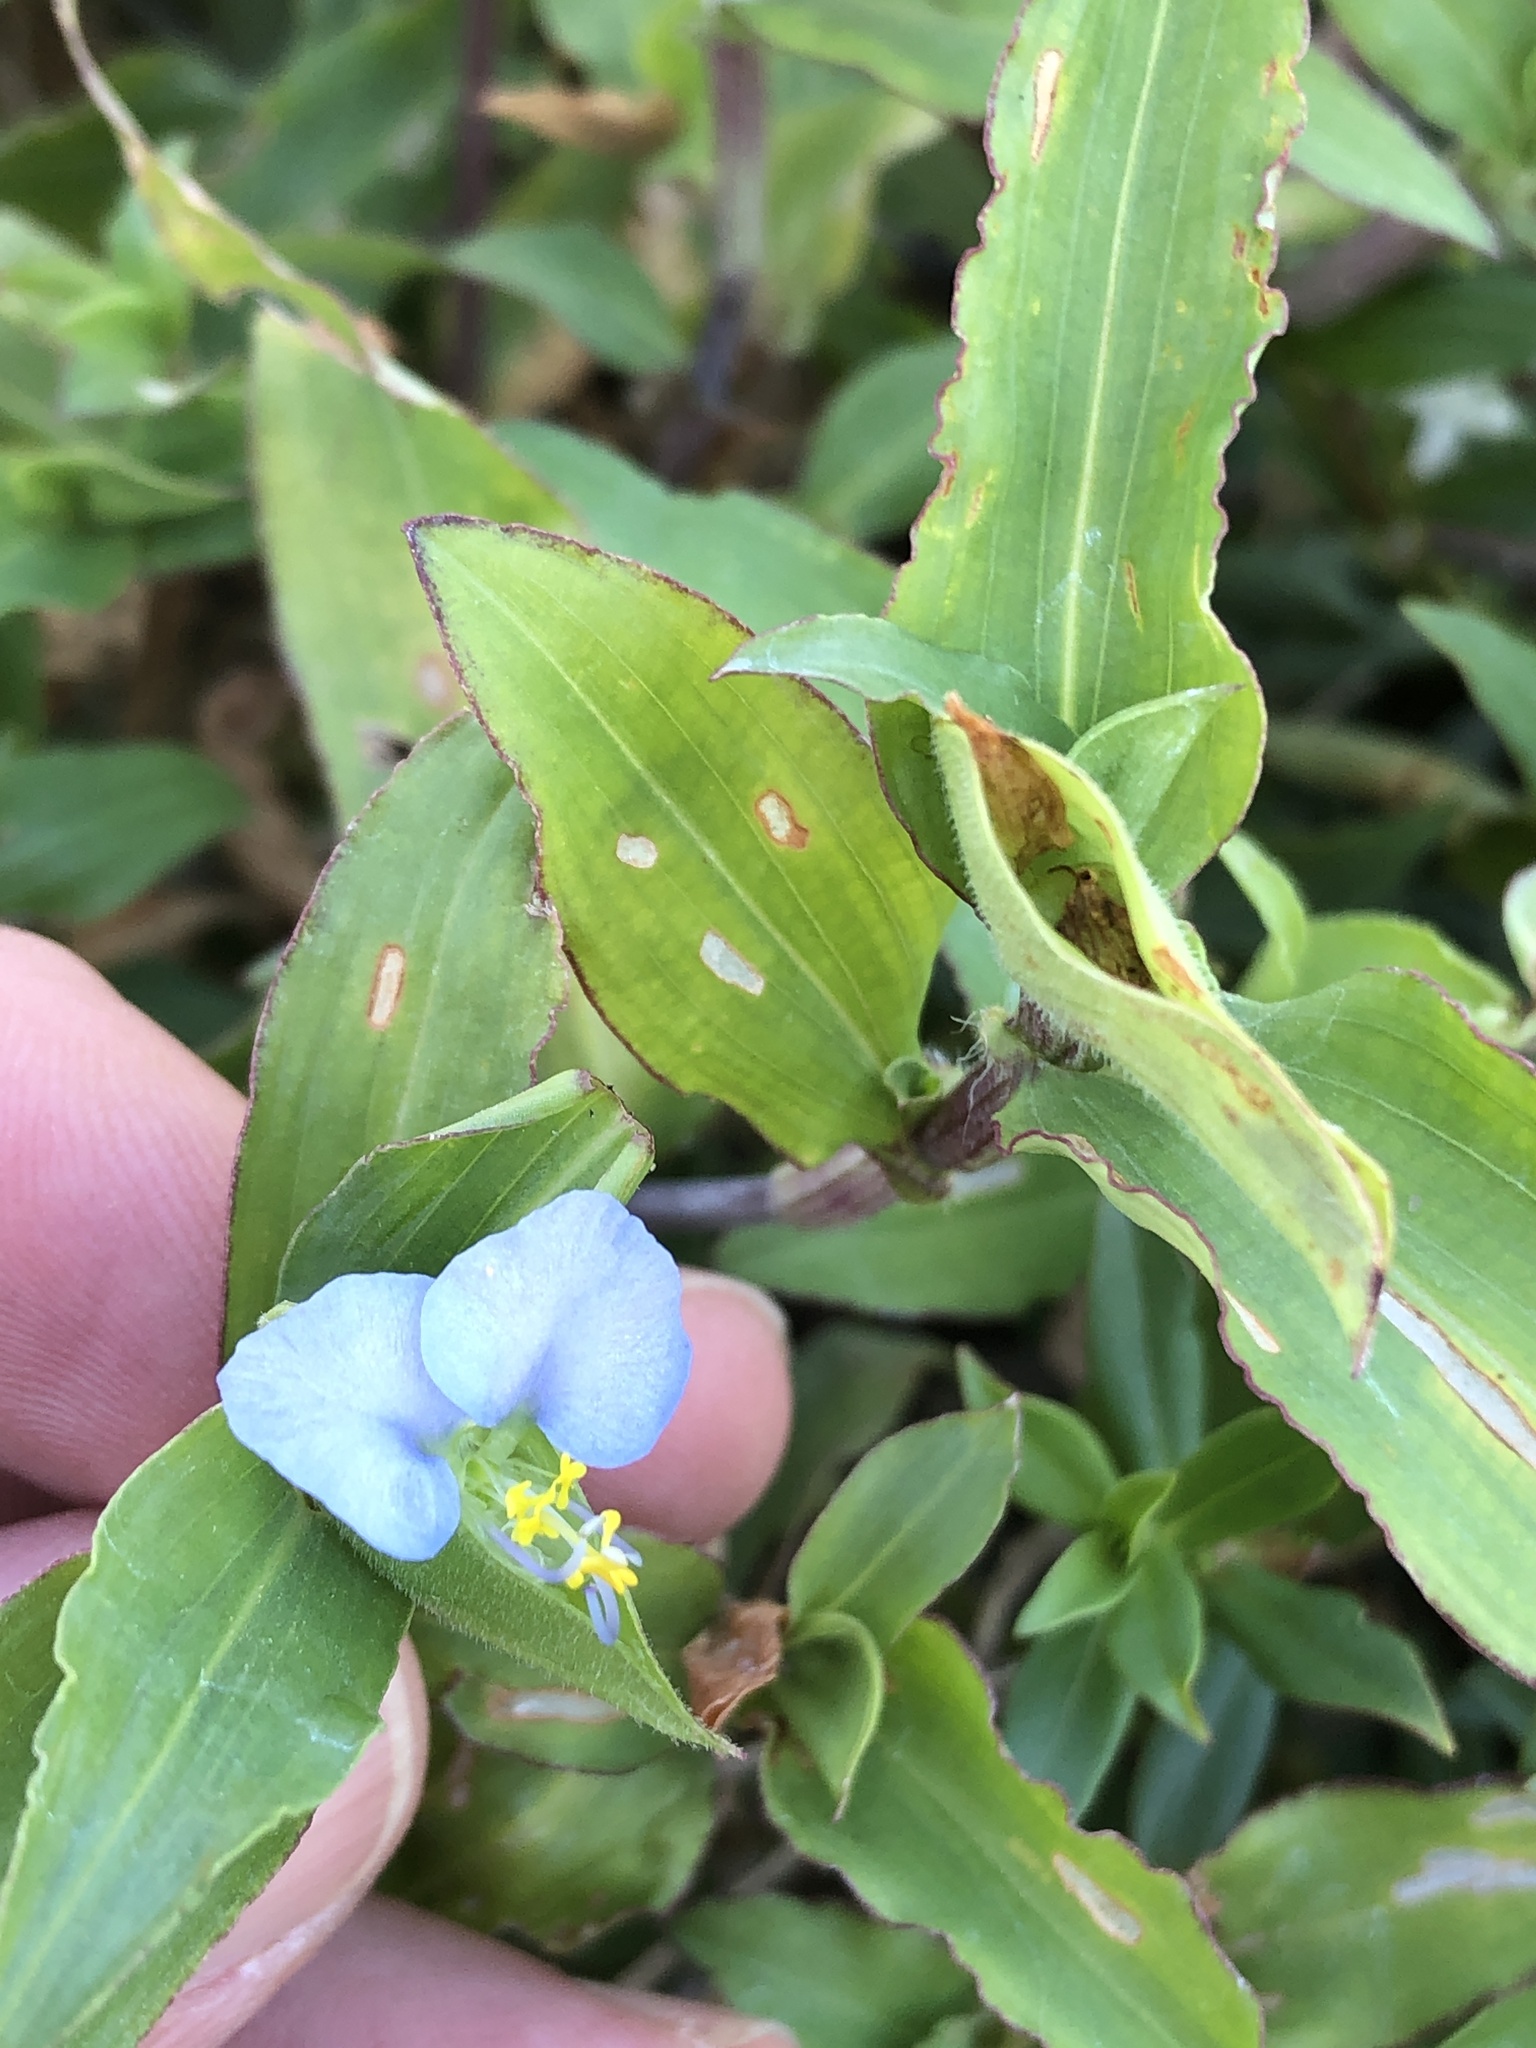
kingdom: Plantae
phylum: Tracheophyta
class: Liliopsida
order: Commelinales
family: Commelinaceae
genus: Commelina
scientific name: Commelina erecta
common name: Blousel blommetjie
